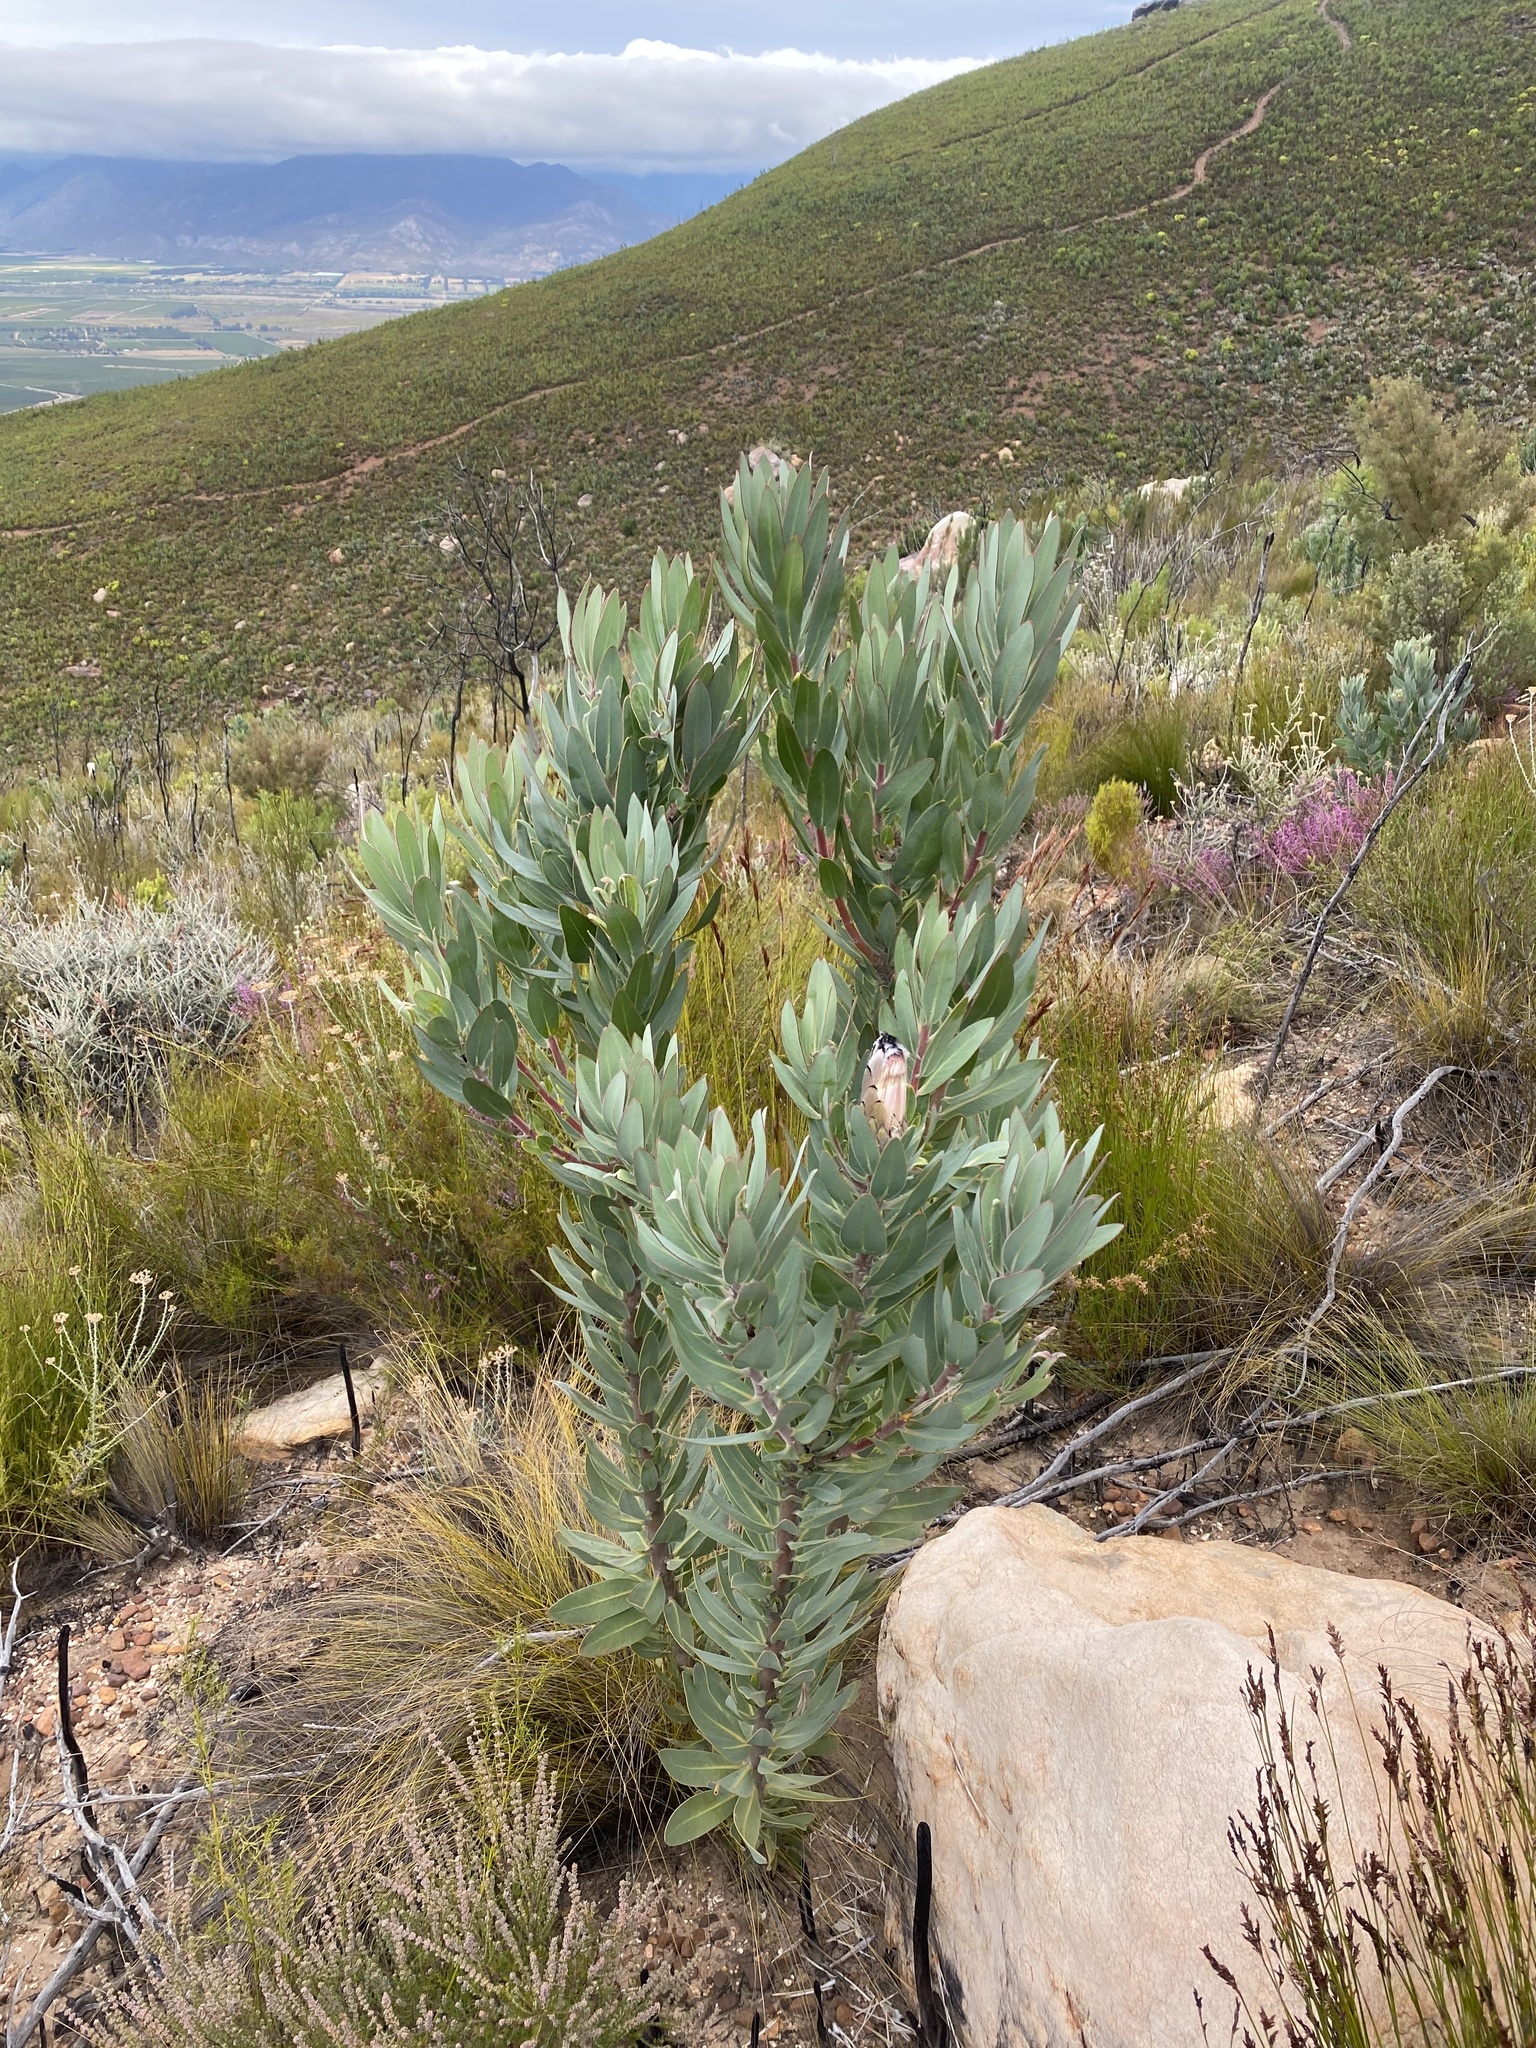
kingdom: Plantae
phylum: Tracheophyta
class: Magnoliopsida
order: Proteales
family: Proteaceae
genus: Protea
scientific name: Protea laurifolia
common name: Grey-leaf sugarbsh
